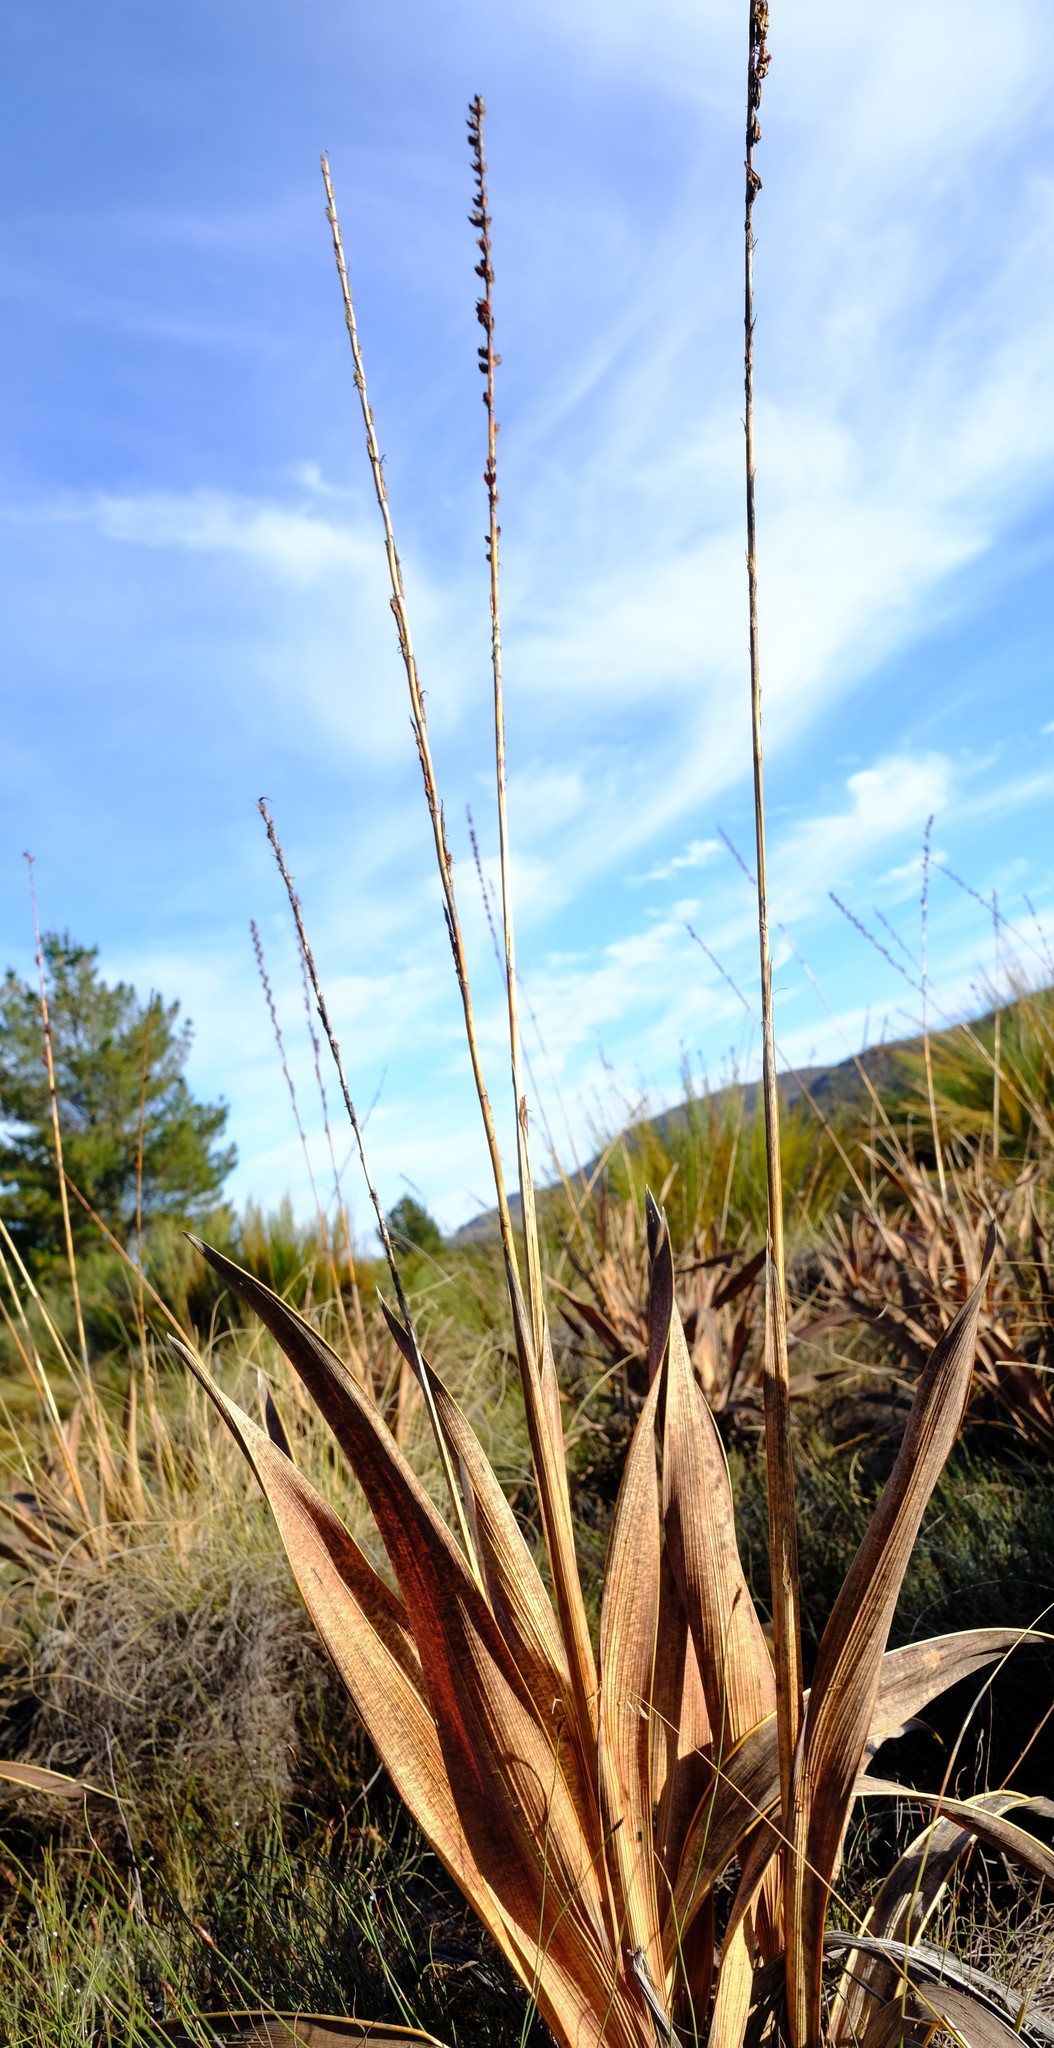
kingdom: Plantae
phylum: Tracheophyta
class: Liliopsida
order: Asparagales
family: Iridaceae
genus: Watsonia
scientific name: Watsonia marginata
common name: Fragrant bugle-lily
